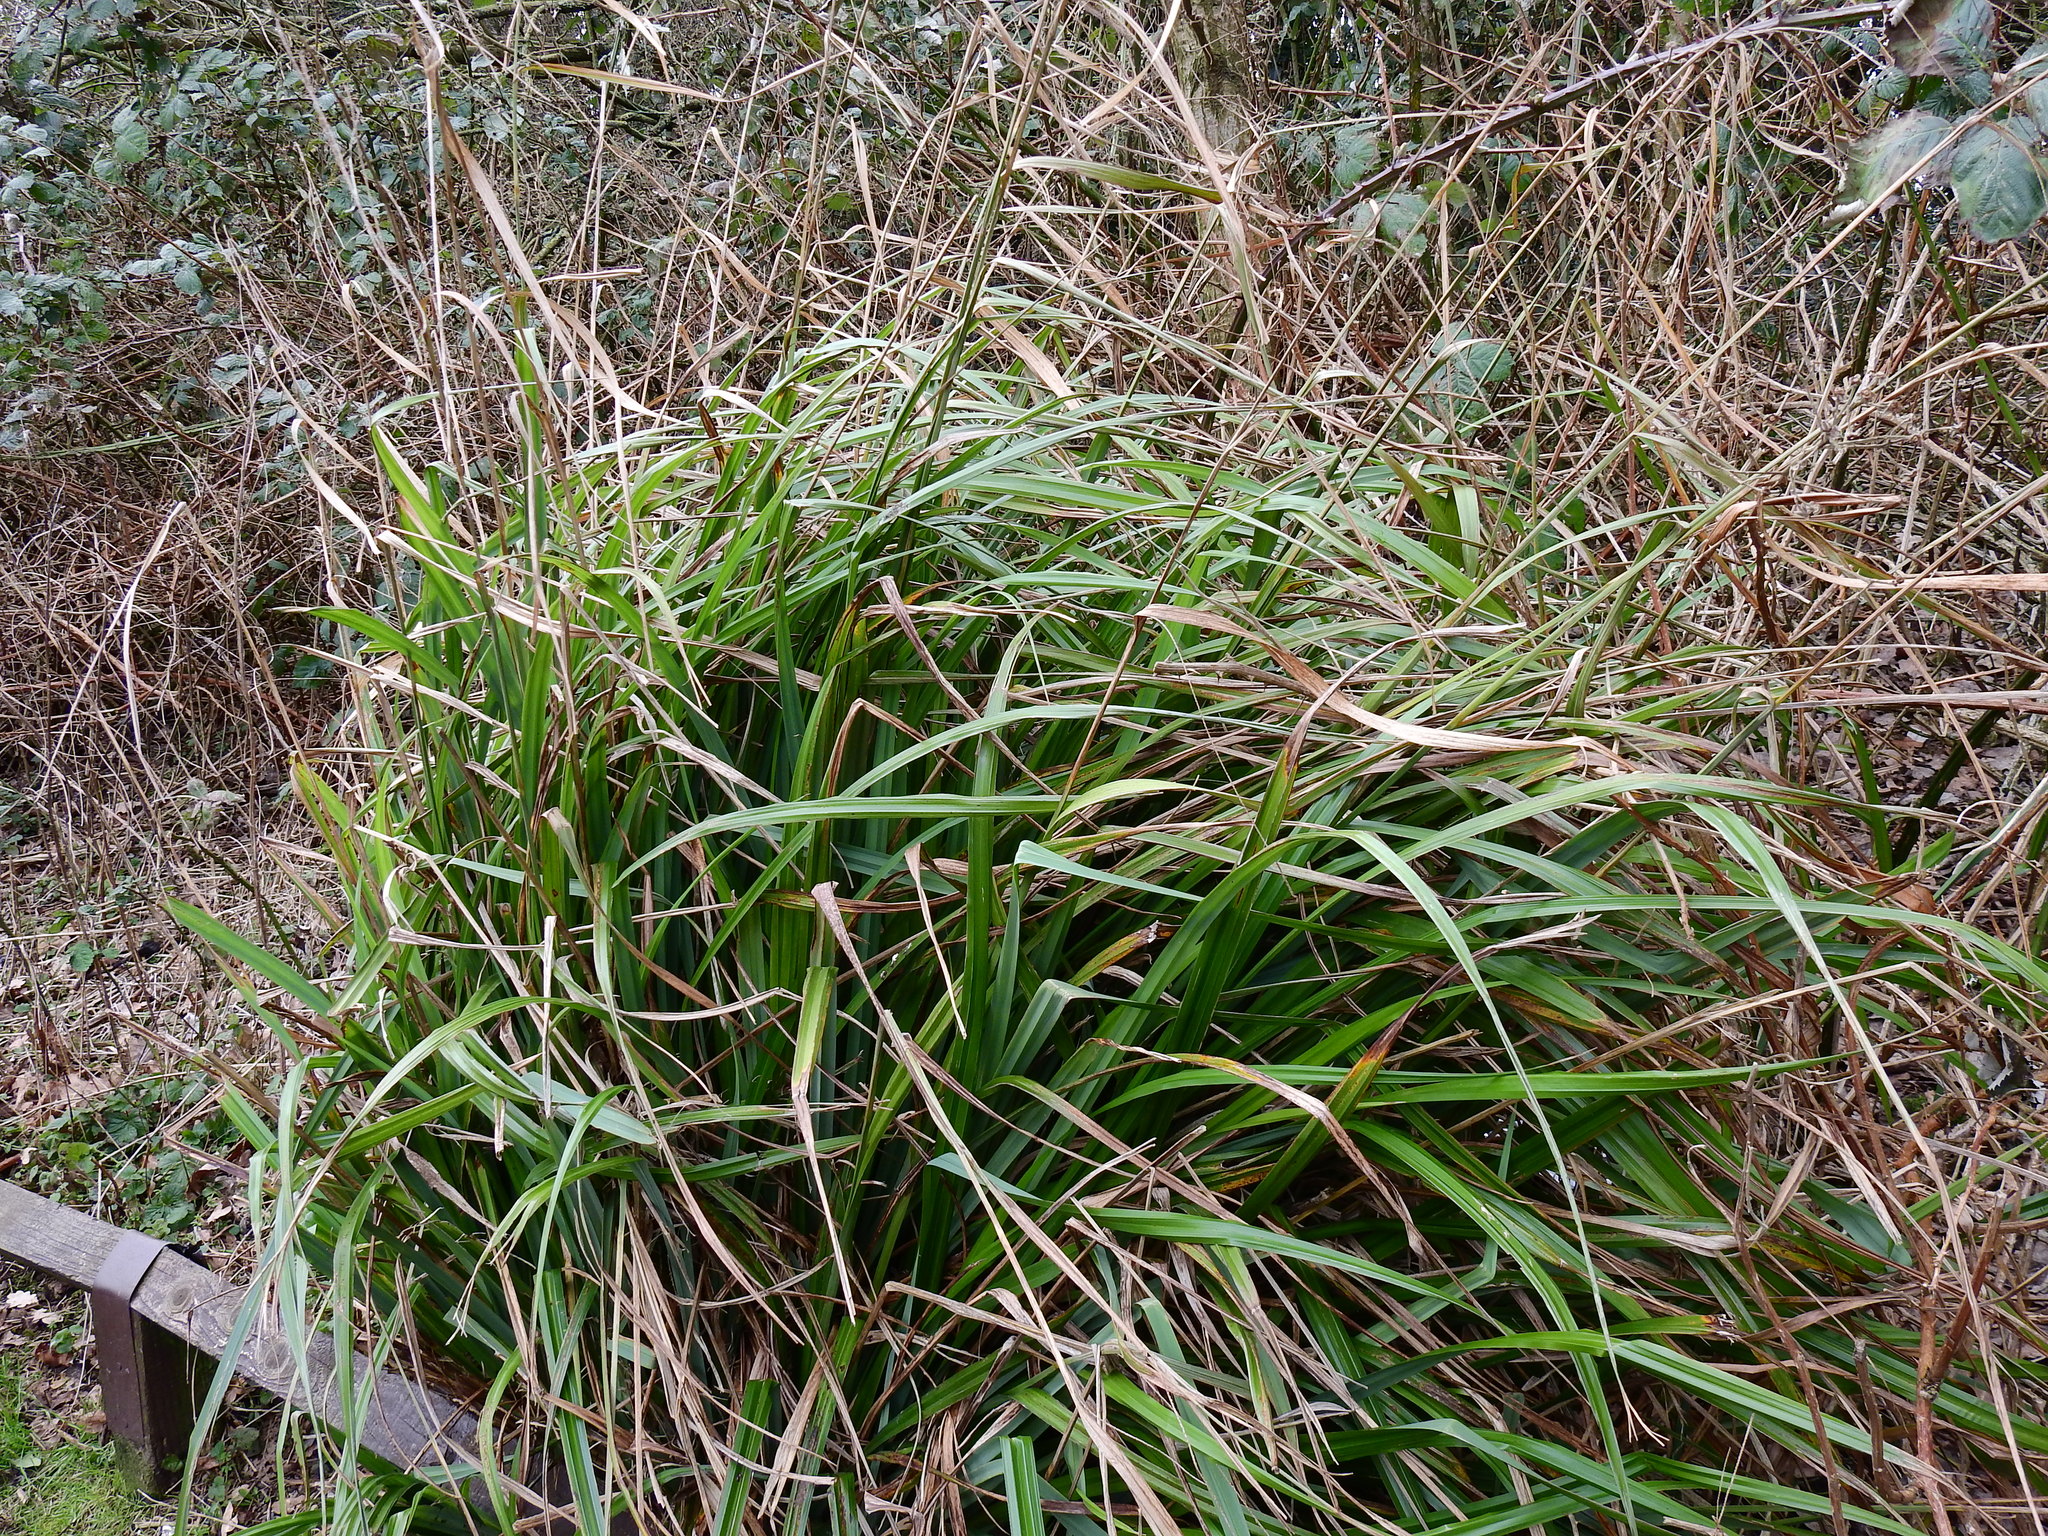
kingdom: Plantae
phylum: Tracheophyta
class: Liliopsida
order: Poales
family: Cyperaceae
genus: Carex
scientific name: Carex pendula
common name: Pendulous sedge
